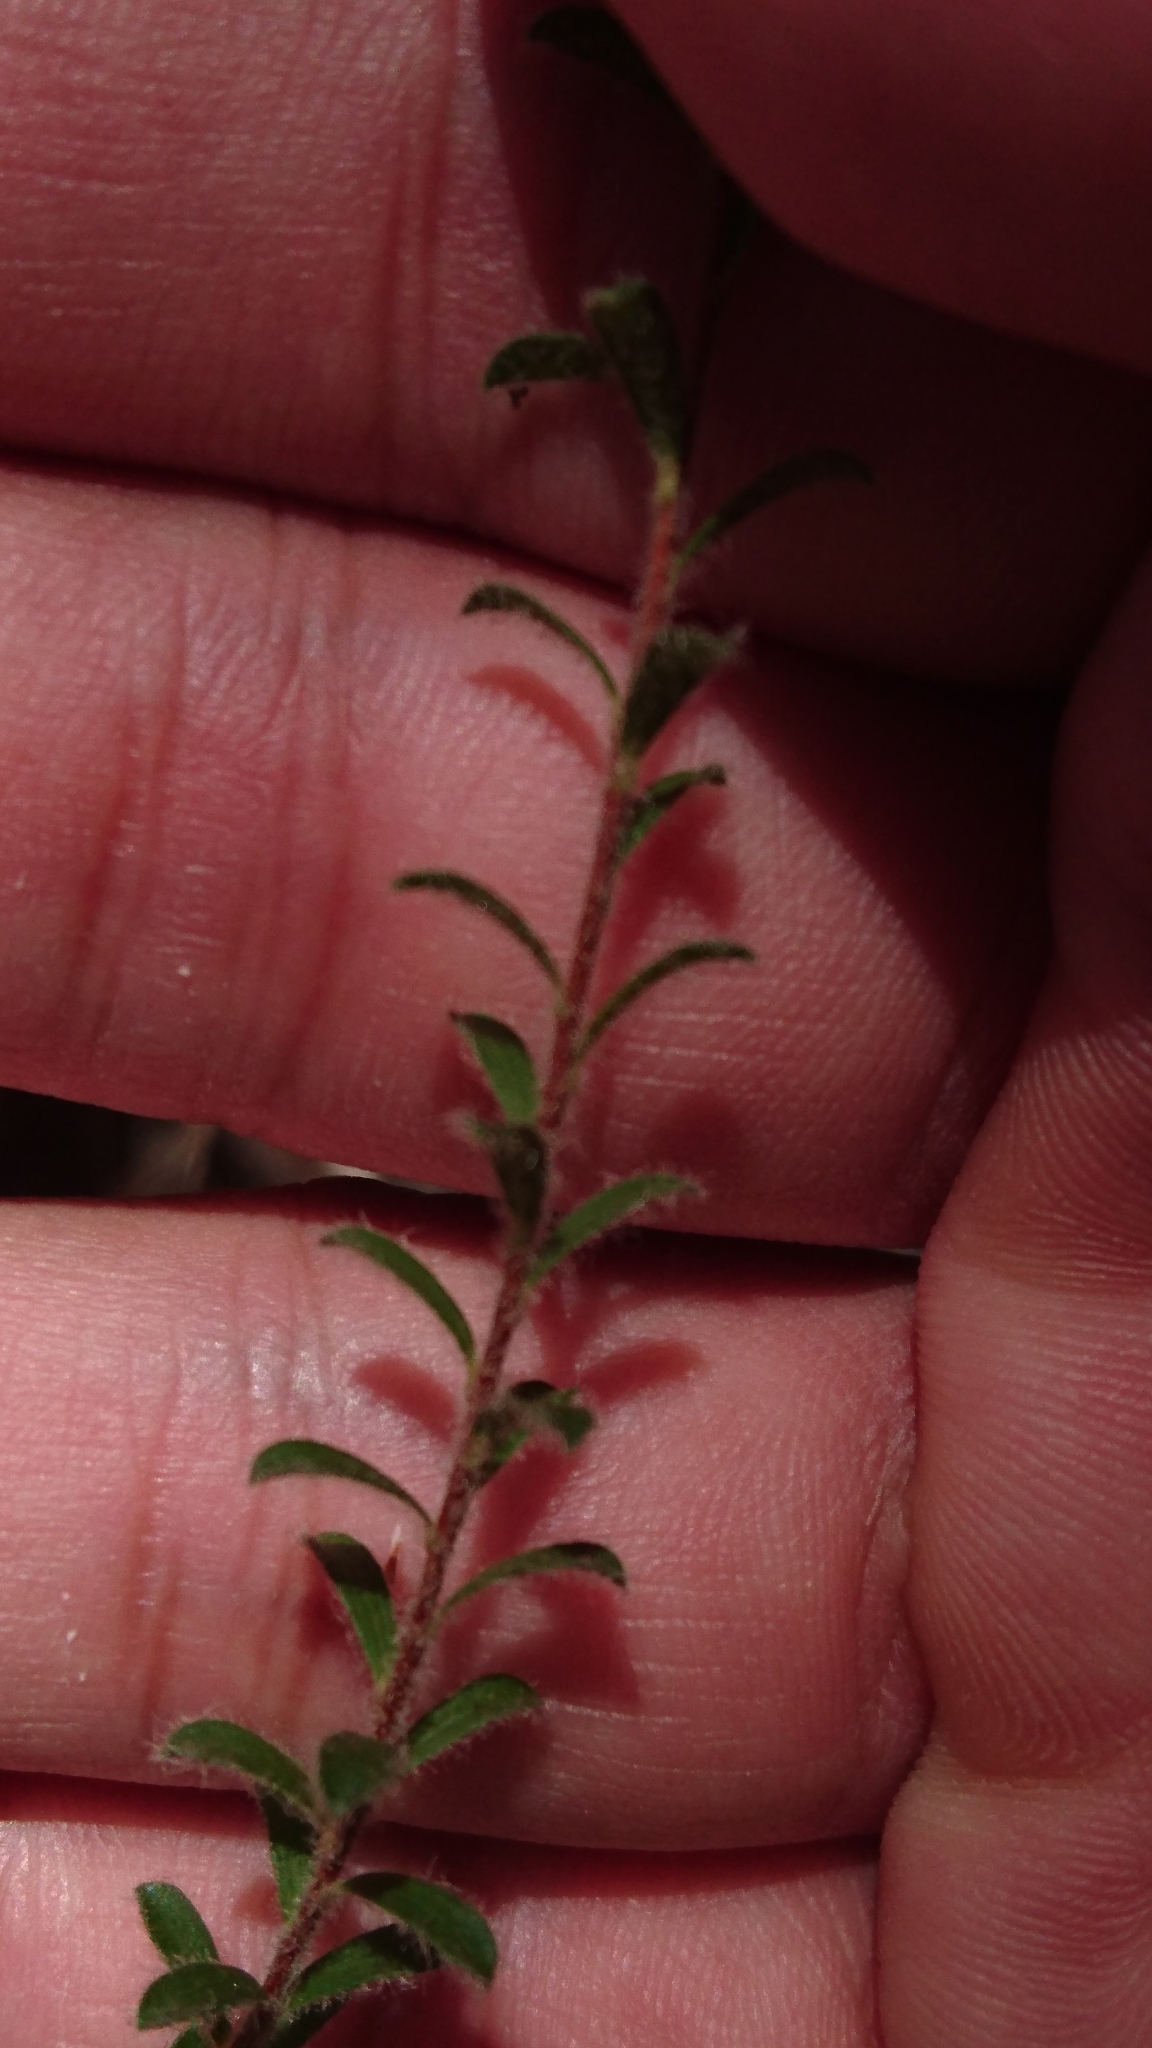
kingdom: Plantae
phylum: Tracheophyta
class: Magnoliopsida
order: Myrtales
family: Myrtaceae
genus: Kunzea
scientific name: Kunzea capitata
